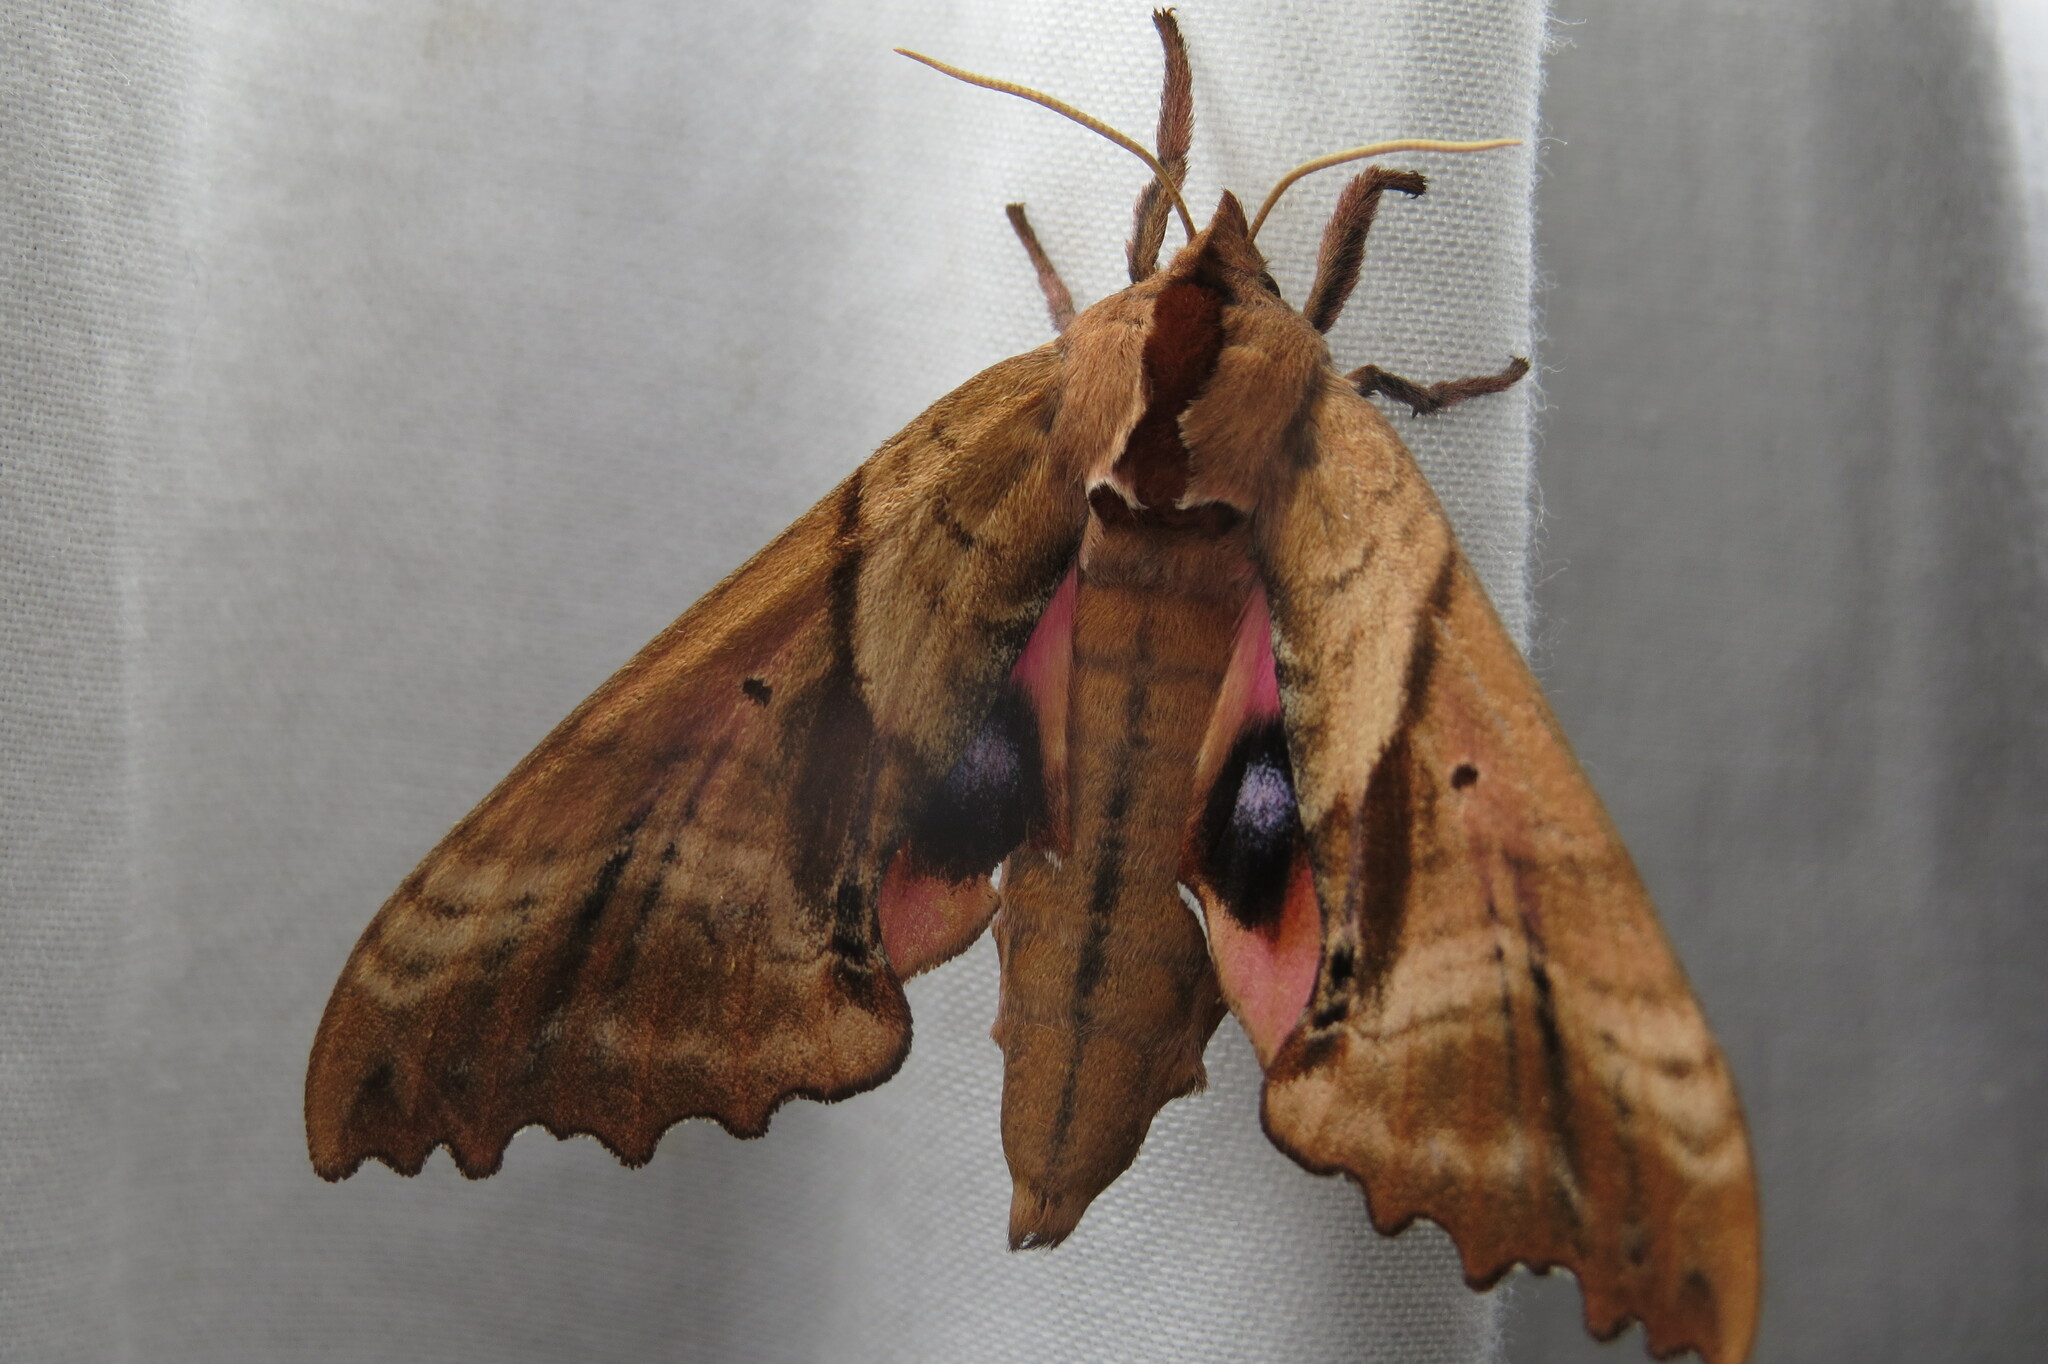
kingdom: Animalia
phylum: Arthropoda
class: Insecta
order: Lepidoptera
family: Sphingidae
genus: Paonias
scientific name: Paonias excaecata
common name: Blind-eyed sphinx
